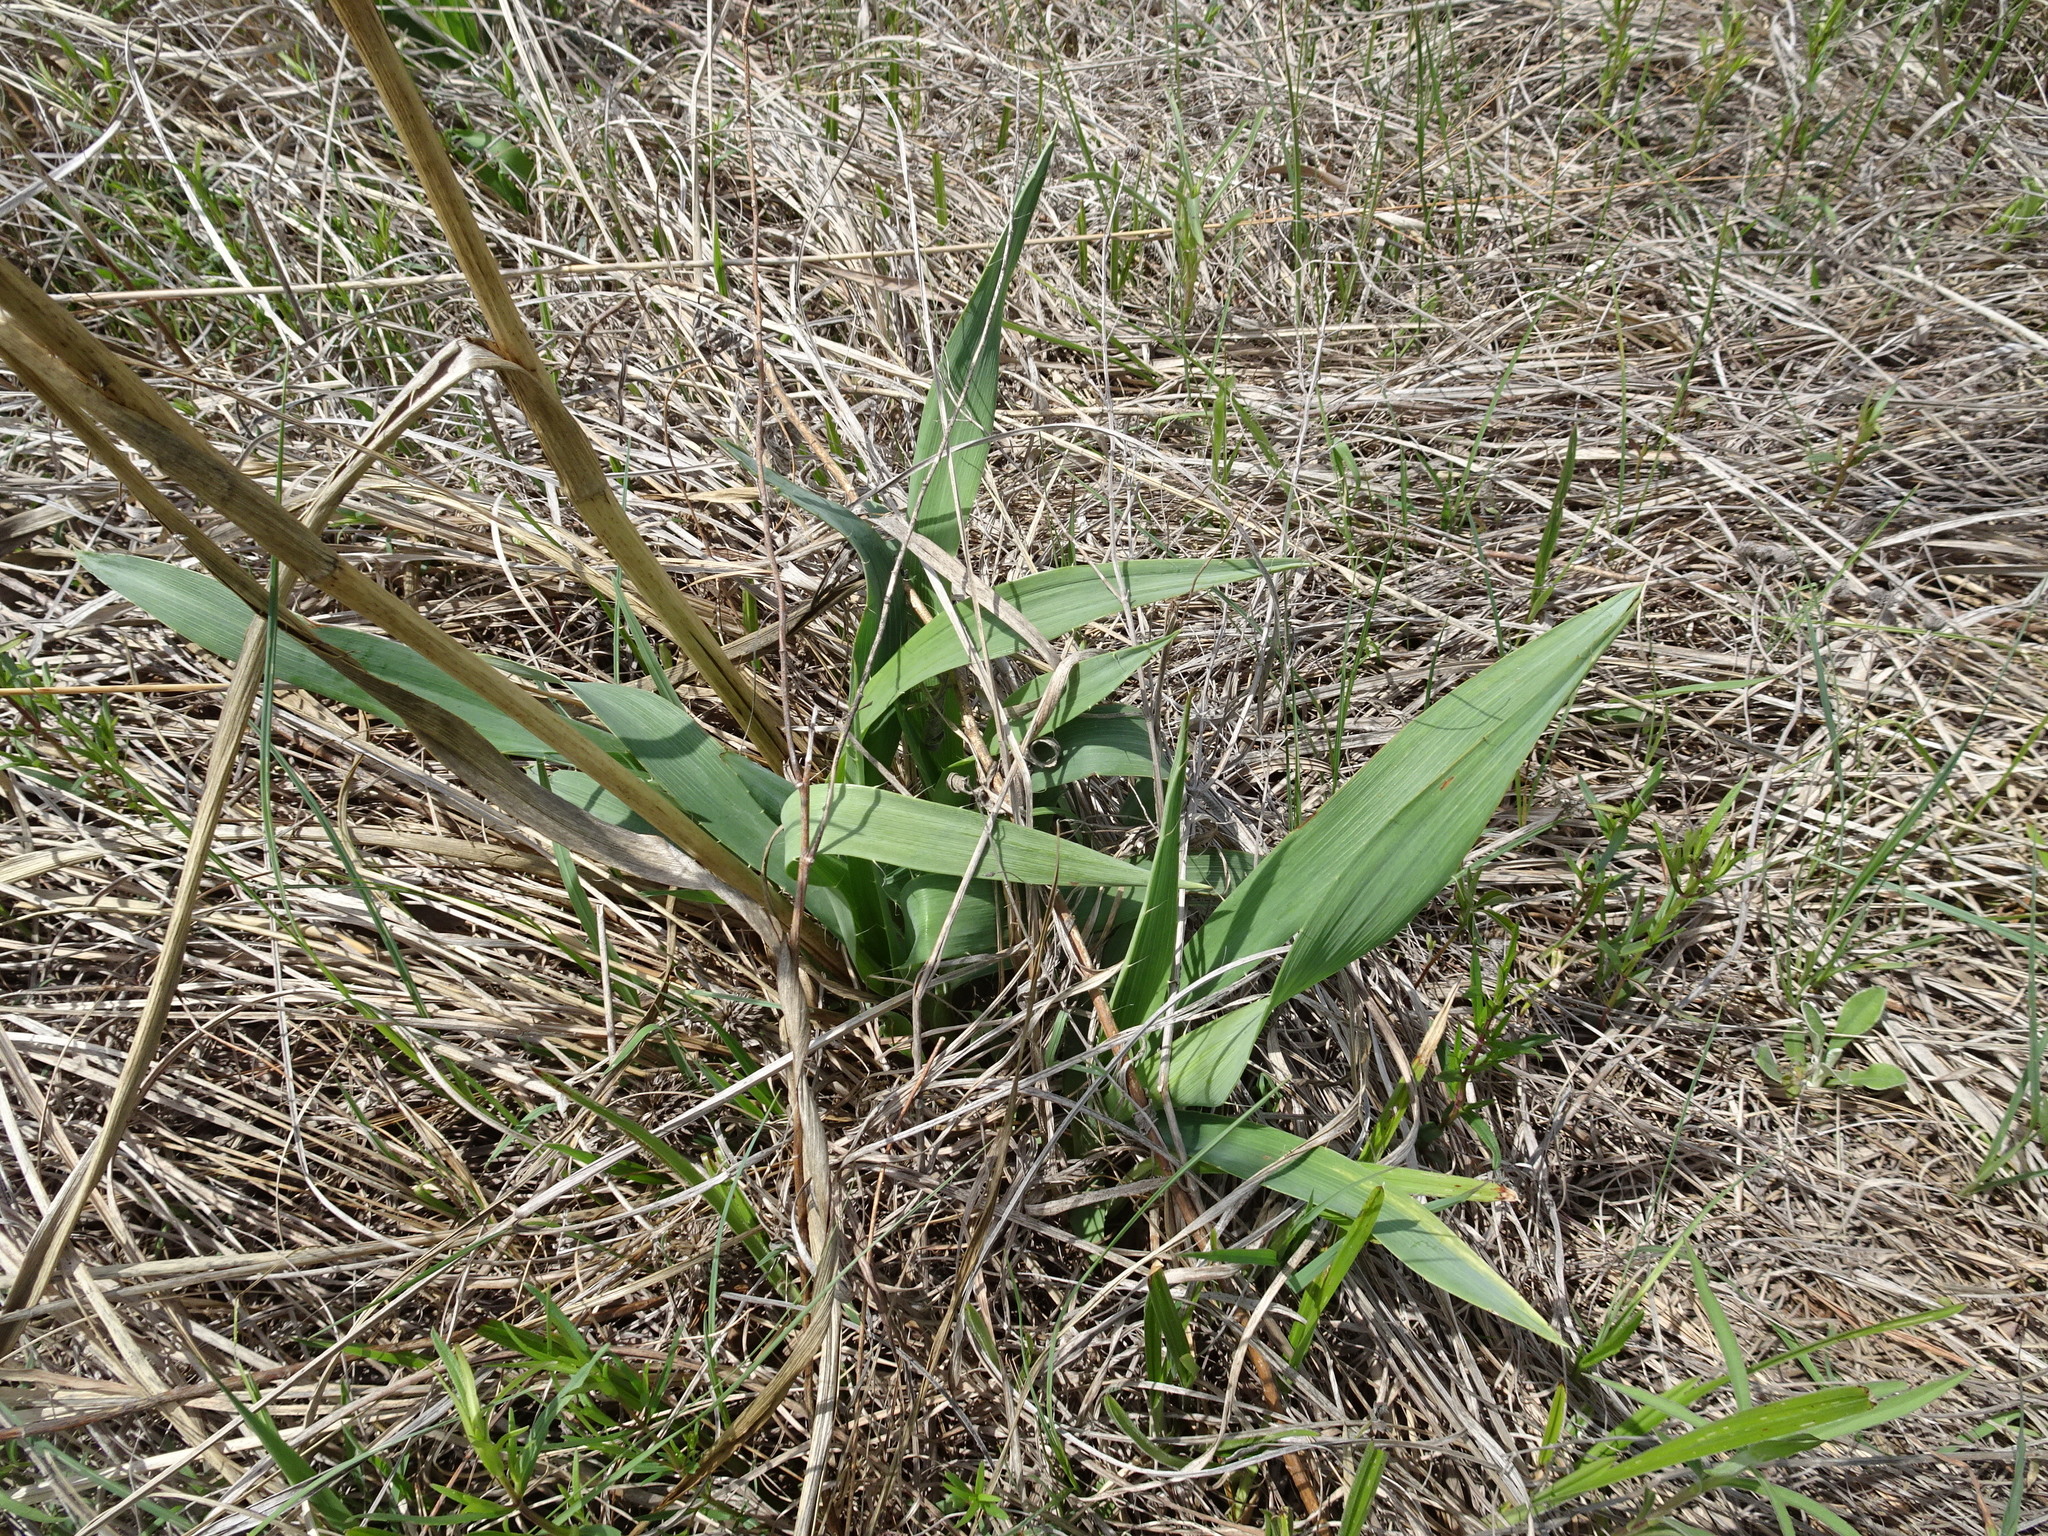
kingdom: Plantae
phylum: Tracheophyta
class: Magnoliopsida
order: Apiales
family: Apiaceae
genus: Eryngium
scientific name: Eryngium yuccifolium
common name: Button eryngo
